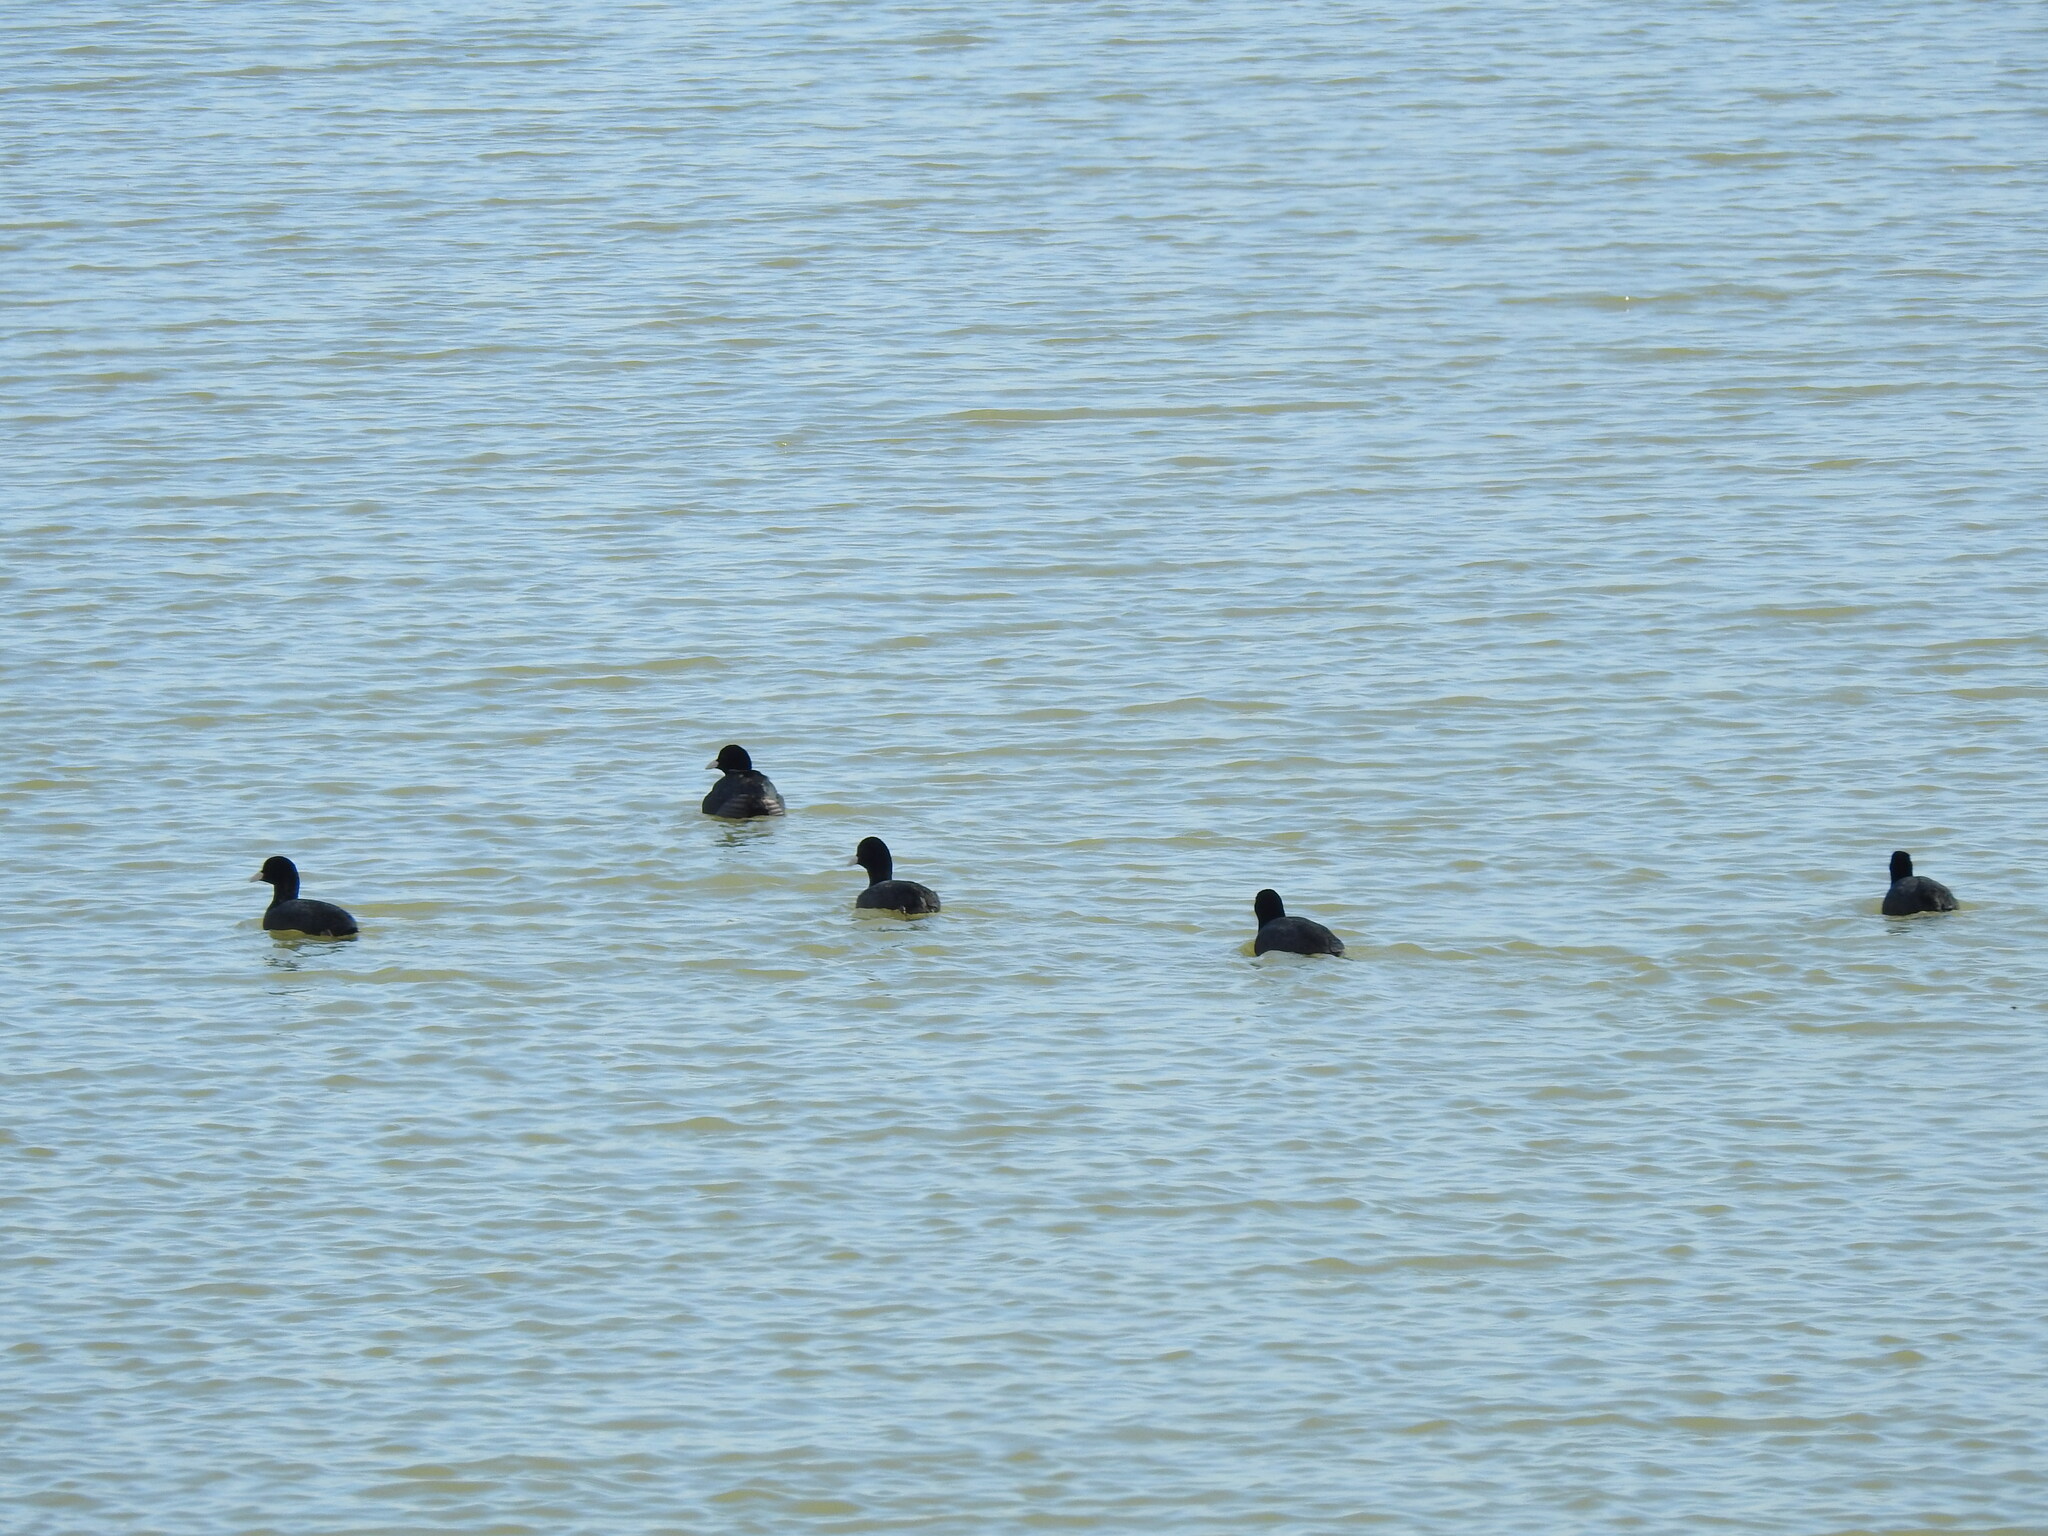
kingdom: Animalia
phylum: Chordata
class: Aves
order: Gruiformes
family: Rallidae
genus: Fulica
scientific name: Fulica atra
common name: Eurasian coot
